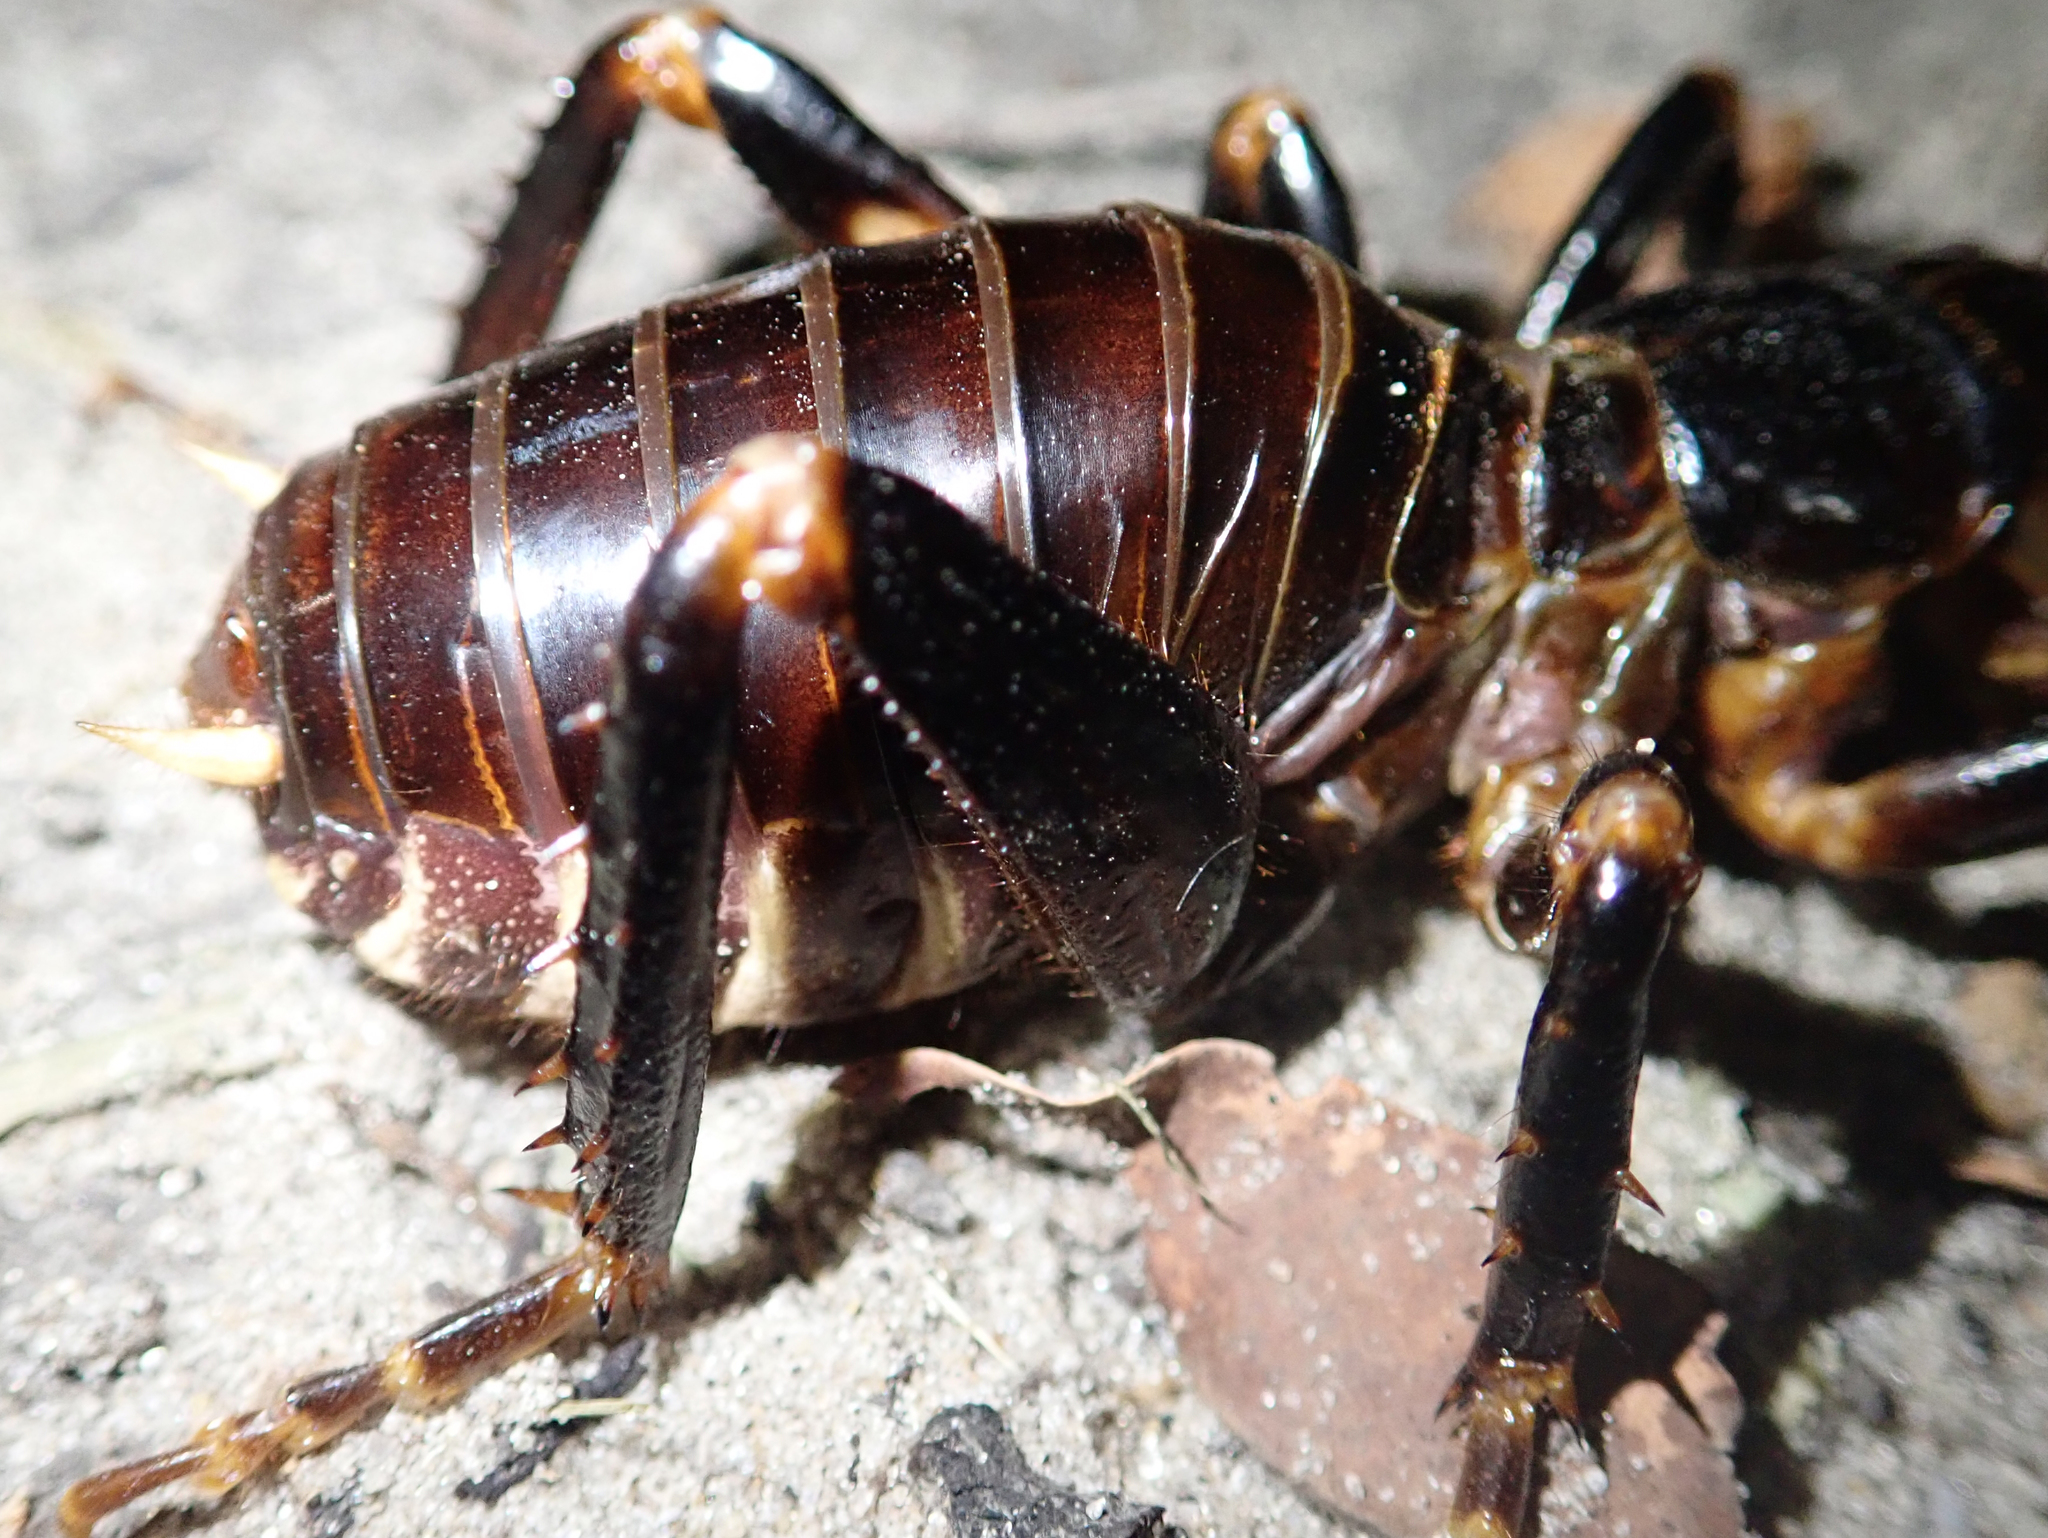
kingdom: Animalia
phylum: Arthropoda
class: Insecta
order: Orthoptera
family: Stenopelmatidae
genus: Maxentius
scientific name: Maxentius pinguis
